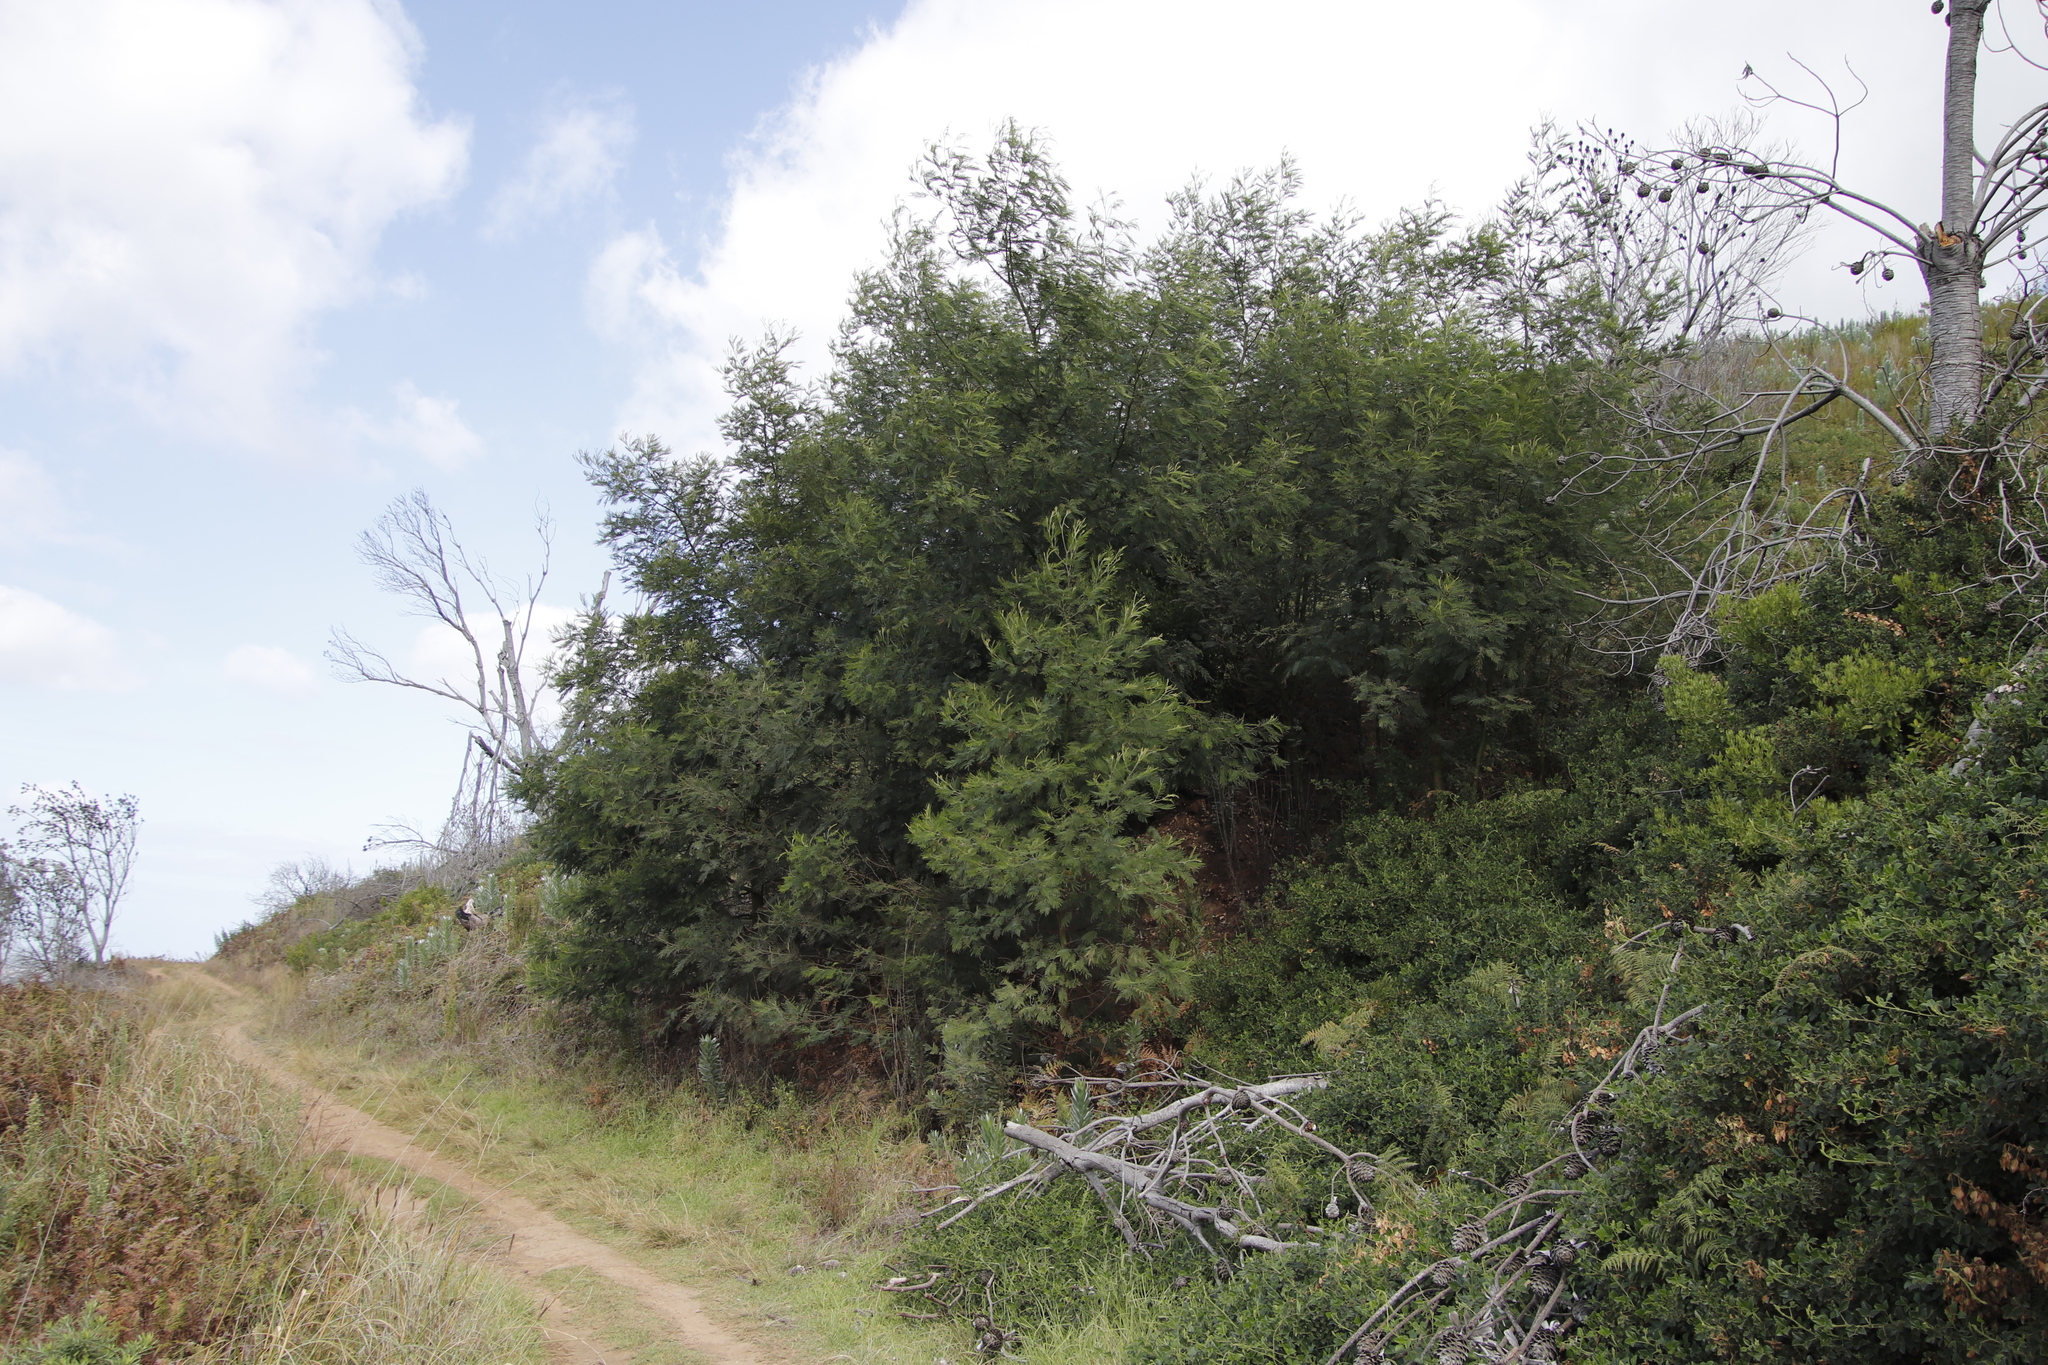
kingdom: Plantae
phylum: Tracheophyta
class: Magnoliopsida
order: Fabales
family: Fabaceae
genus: Acacia
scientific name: Acacia mearnsii
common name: Black wattle
